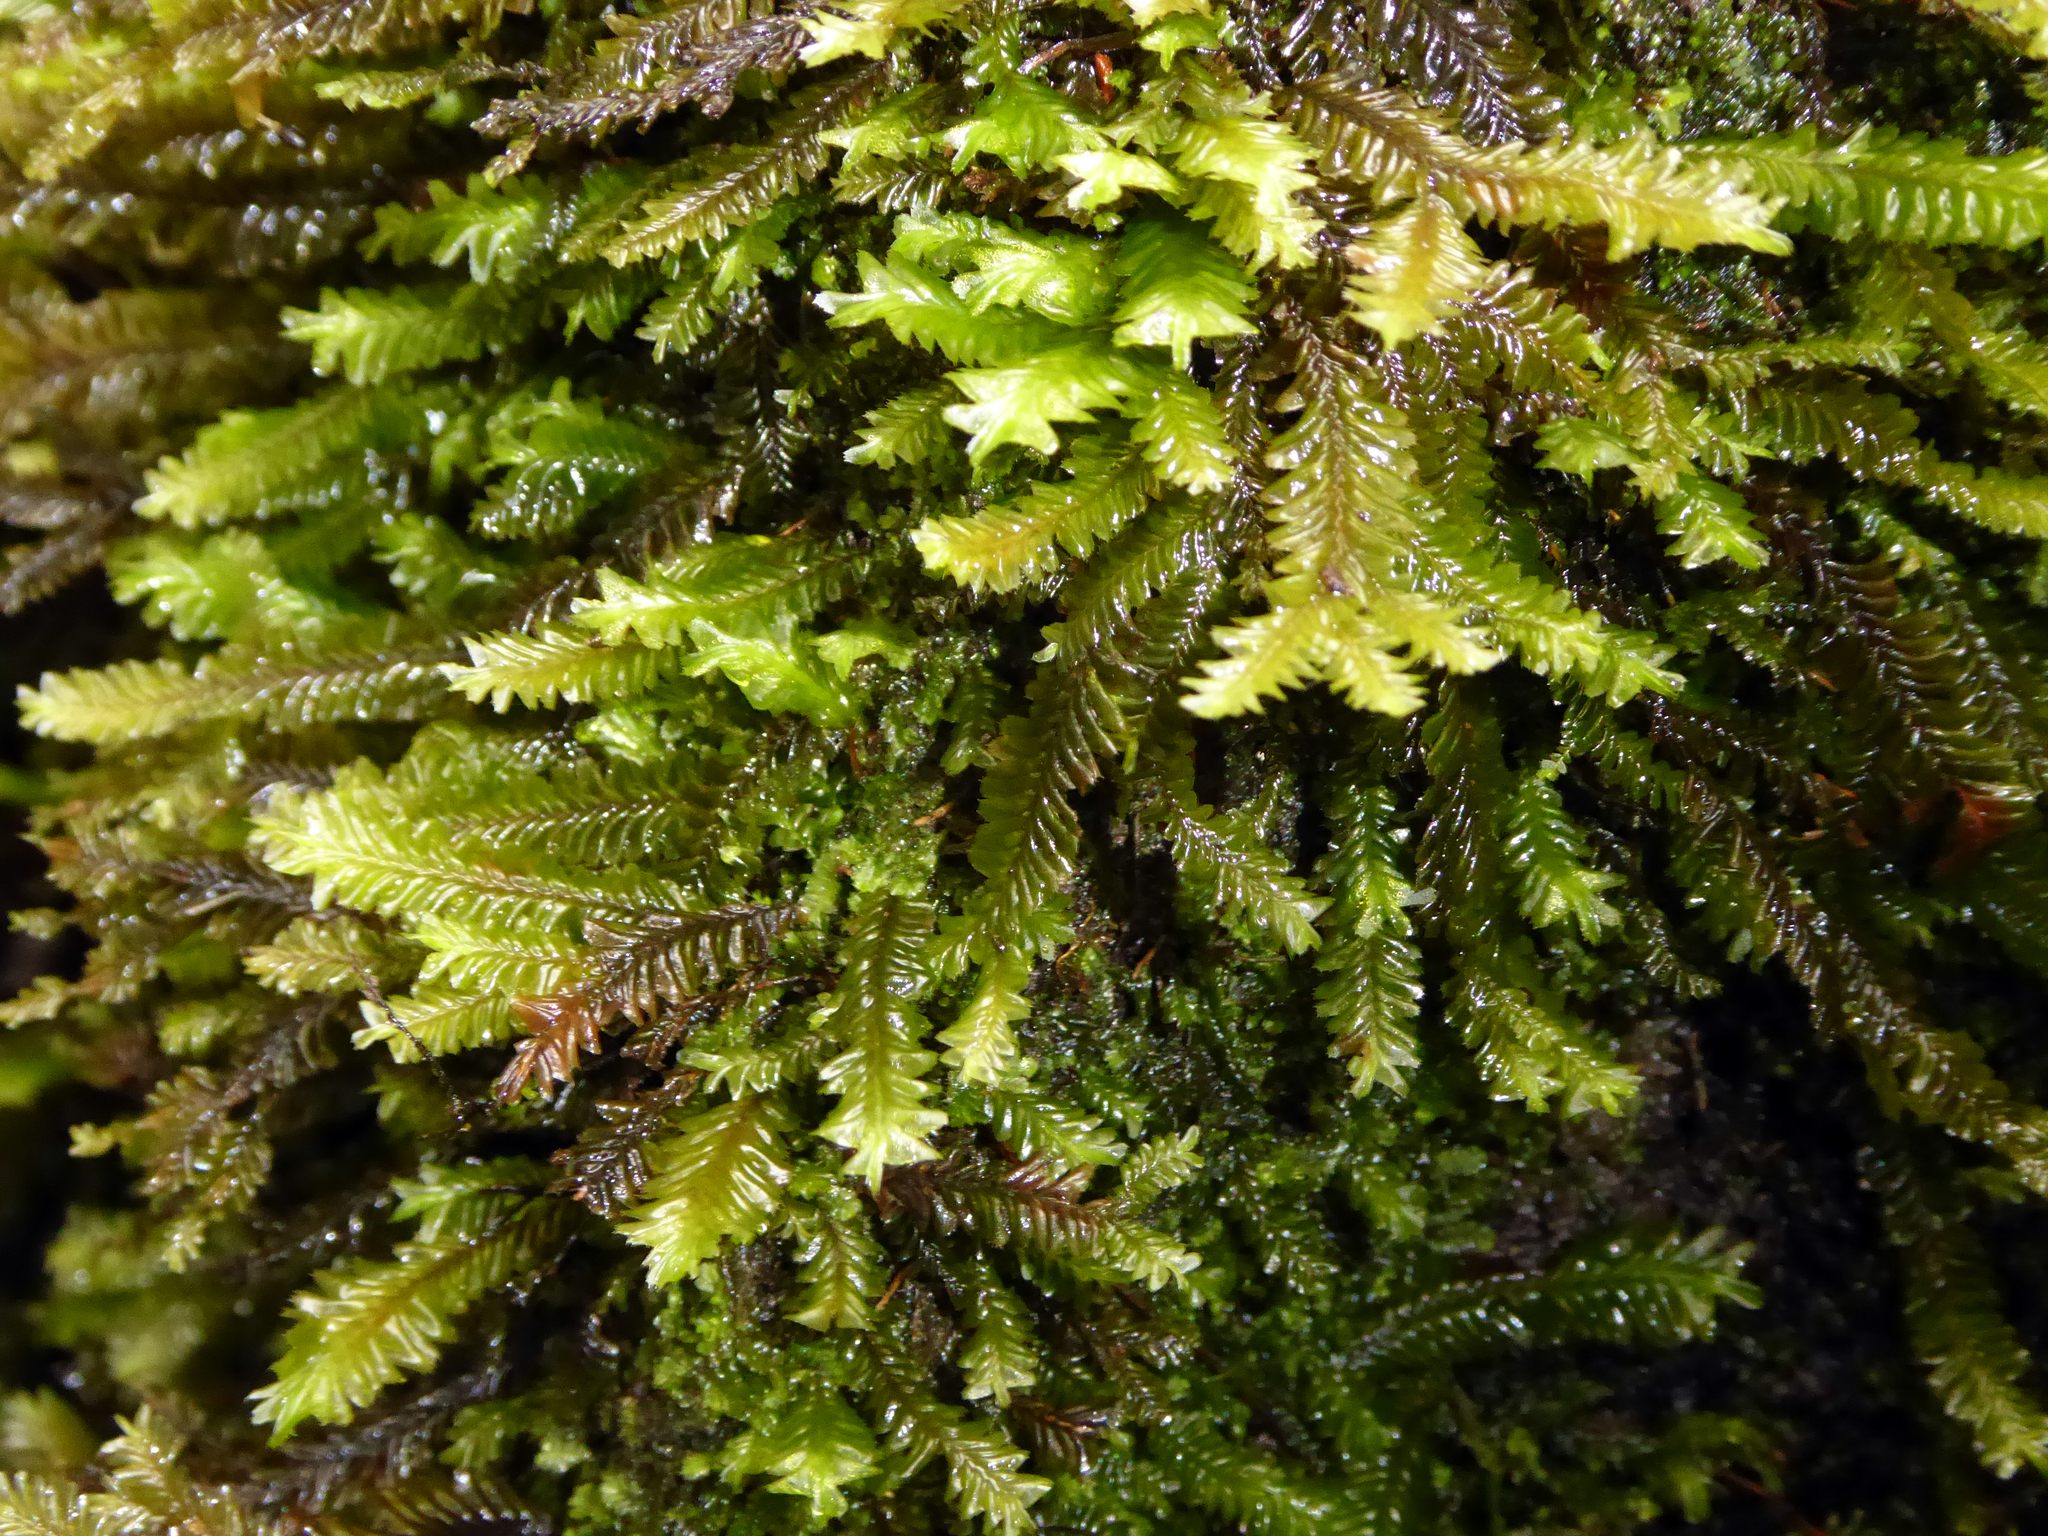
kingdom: Plantae
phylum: Marchantiophyta
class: Jungermanniopsida
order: Jungermanniales
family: Plagiochilaceae
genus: Plagiochila
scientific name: Plagiochila arbuscula
